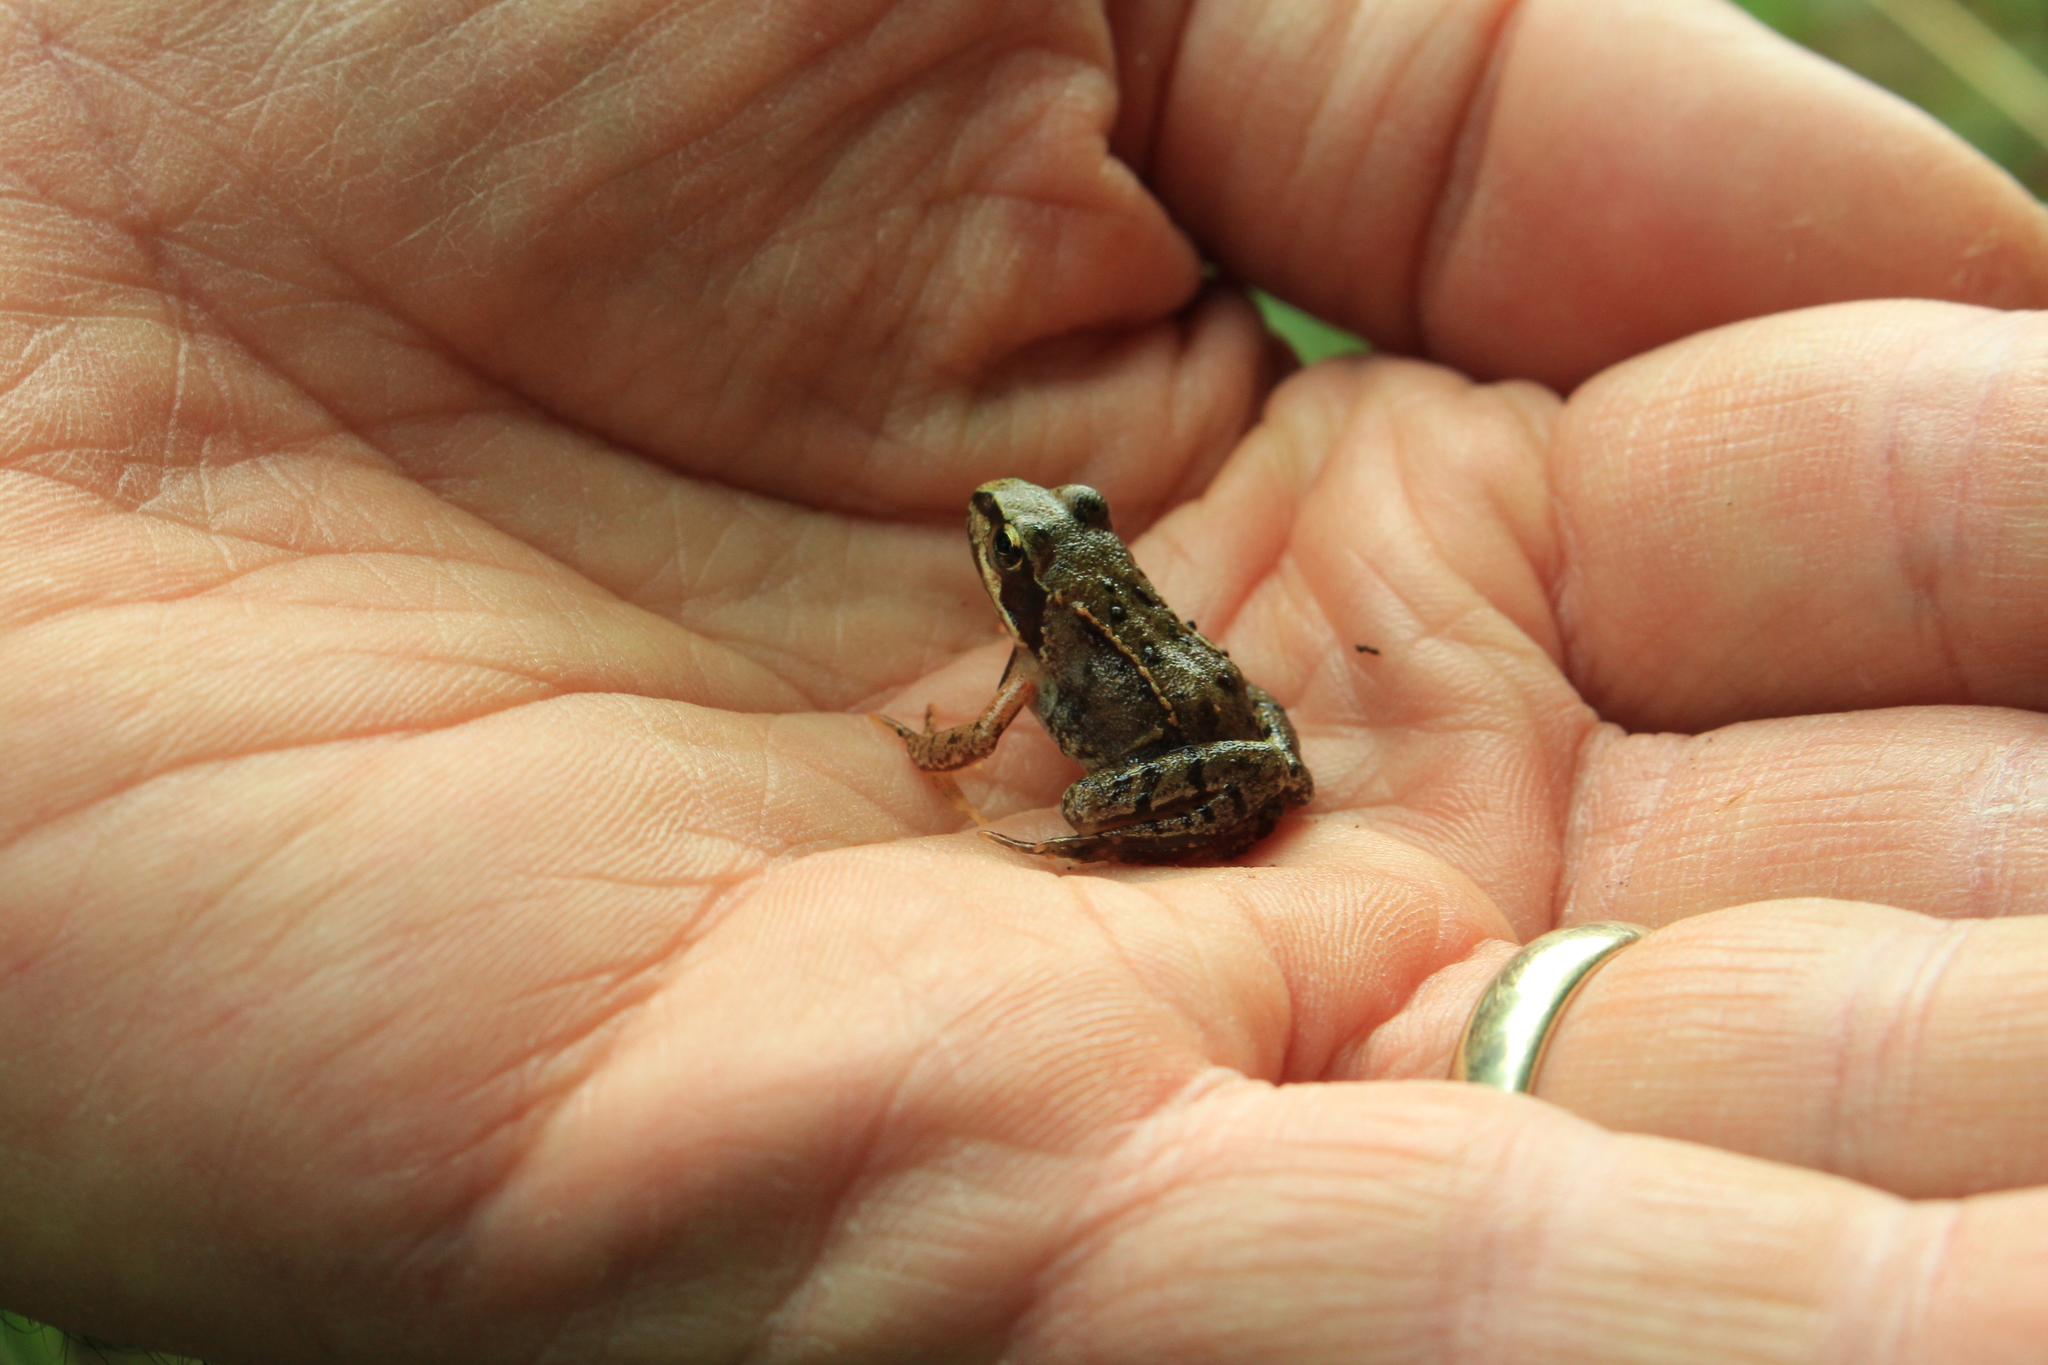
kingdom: Animalia
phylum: Chordata
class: Amphibia
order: Anura
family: Ranidae
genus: Rana
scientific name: Rana temporaria
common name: Common frog
